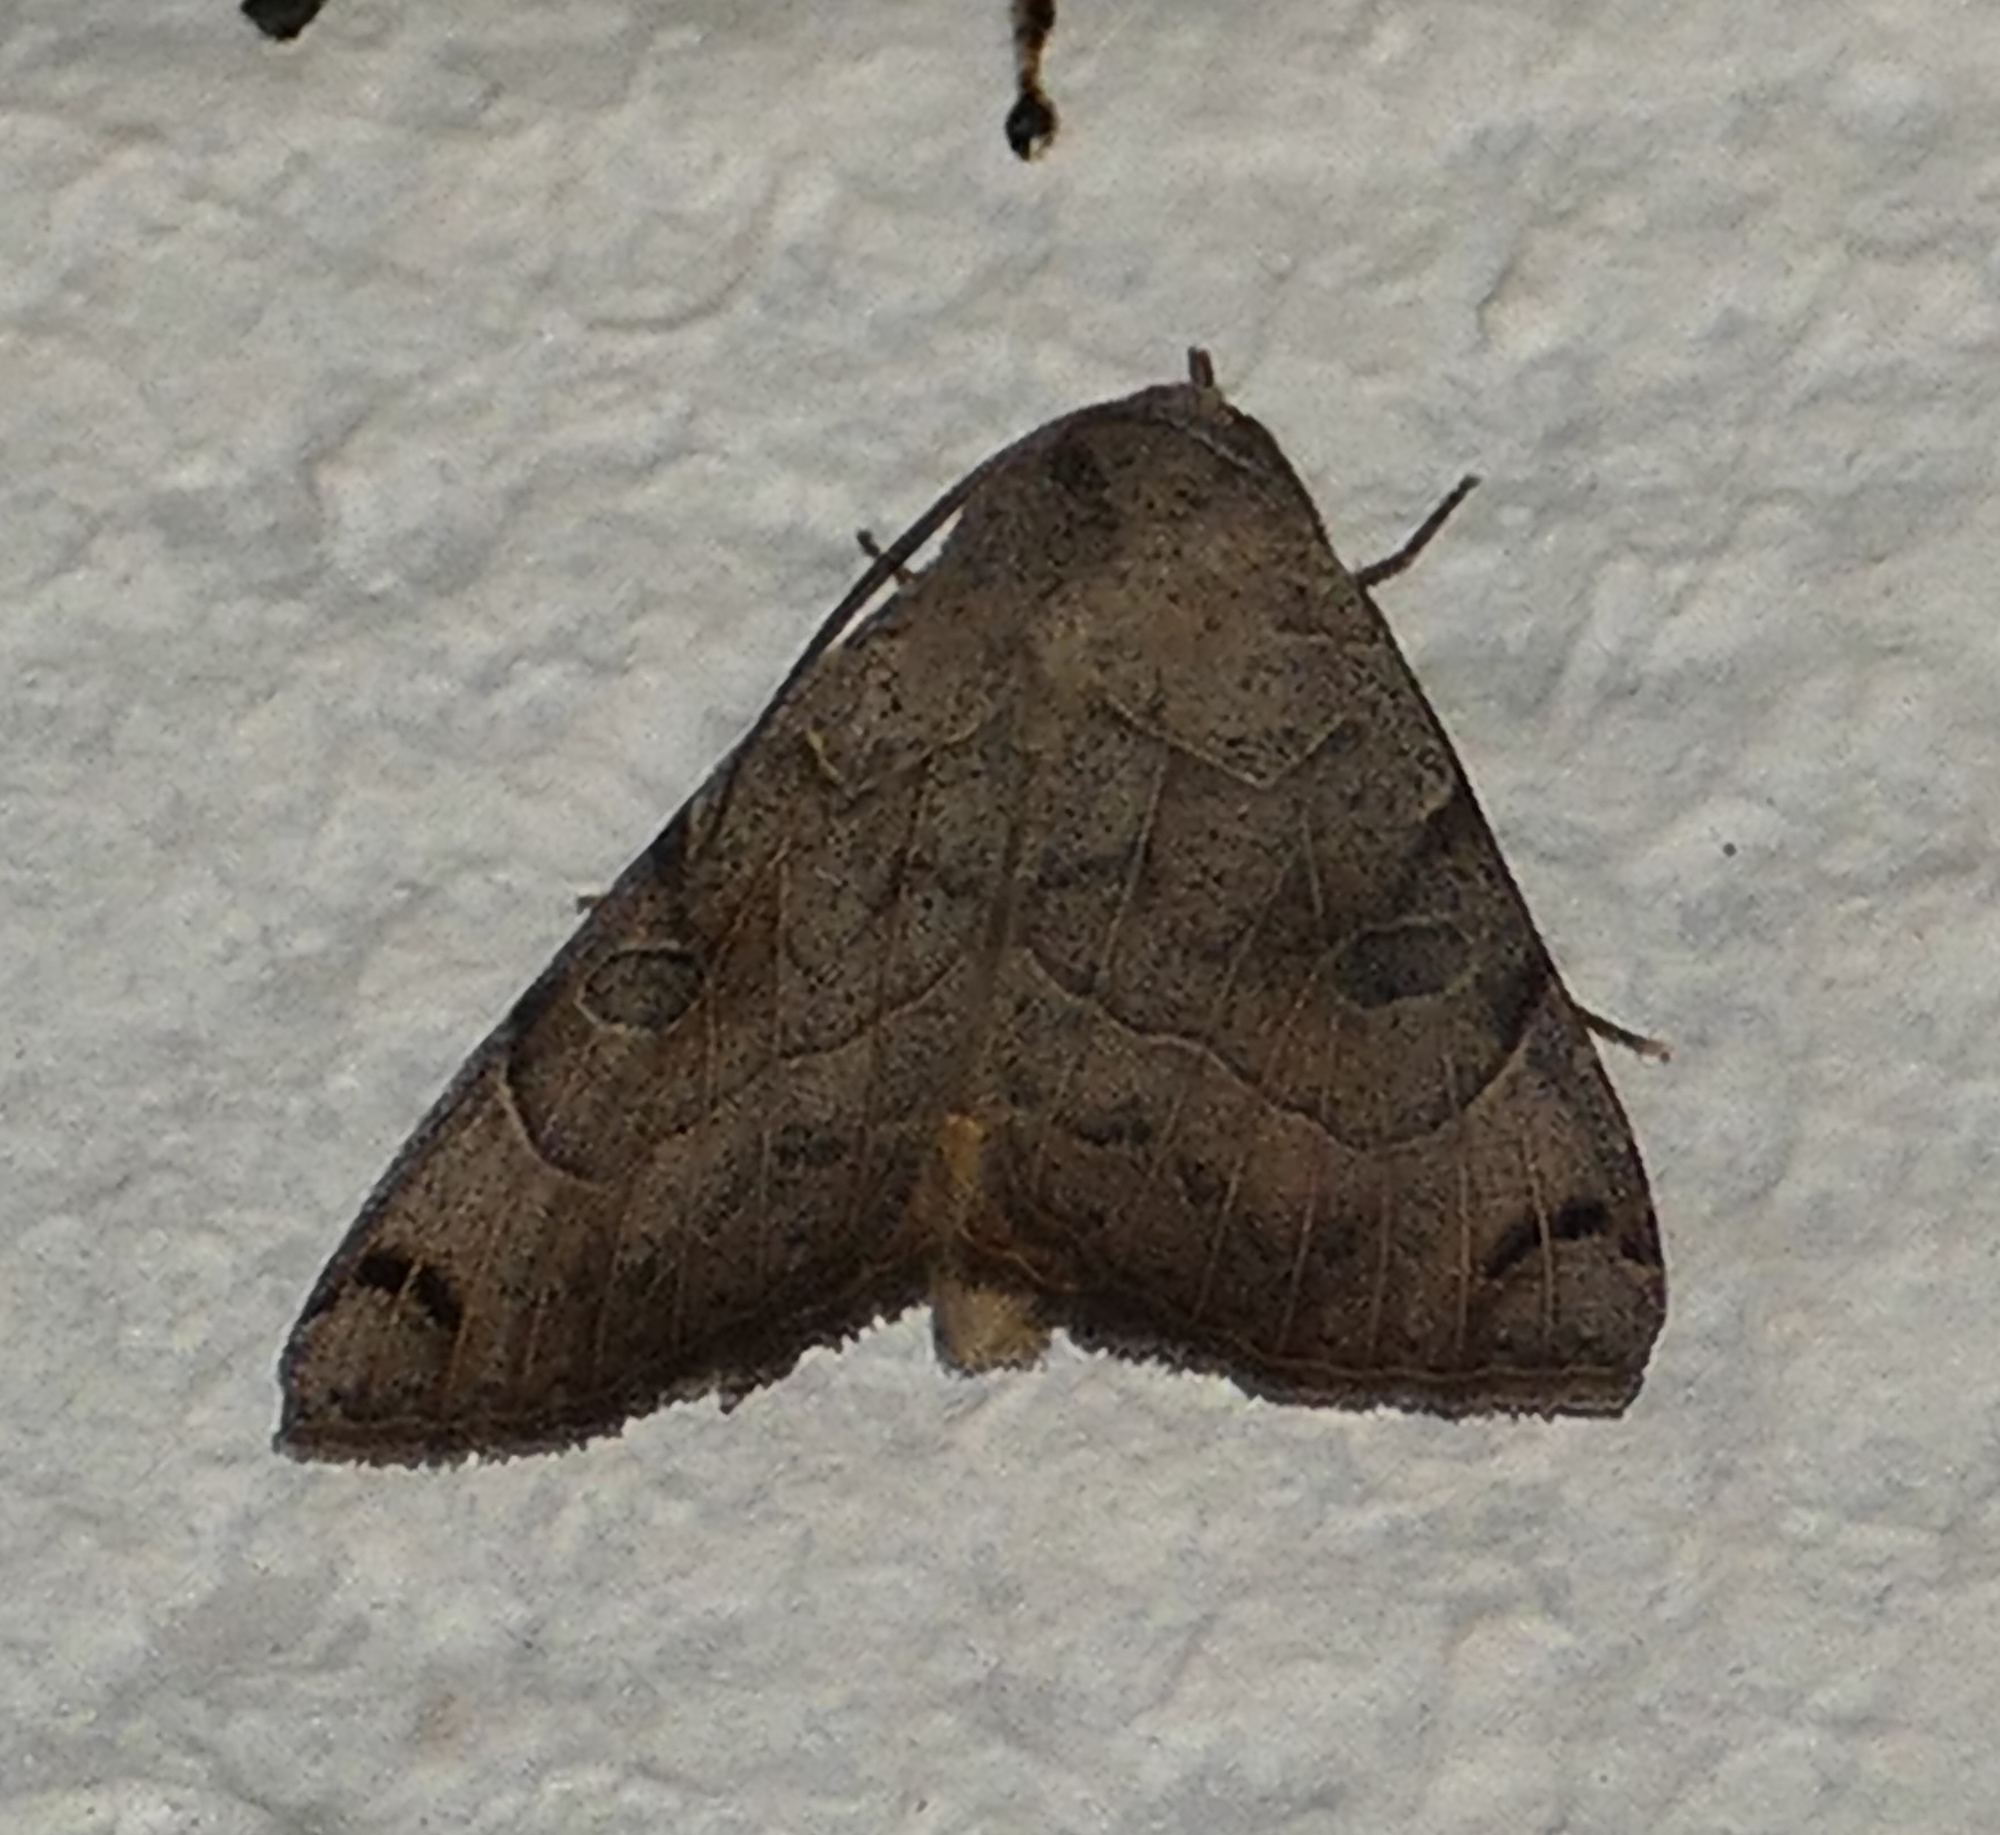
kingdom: Animalia
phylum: Arthropoda
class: Insecta
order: Lepidoptera
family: Erebidae
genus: Isogona
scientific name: Isogona scindens
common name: Owlet moth
